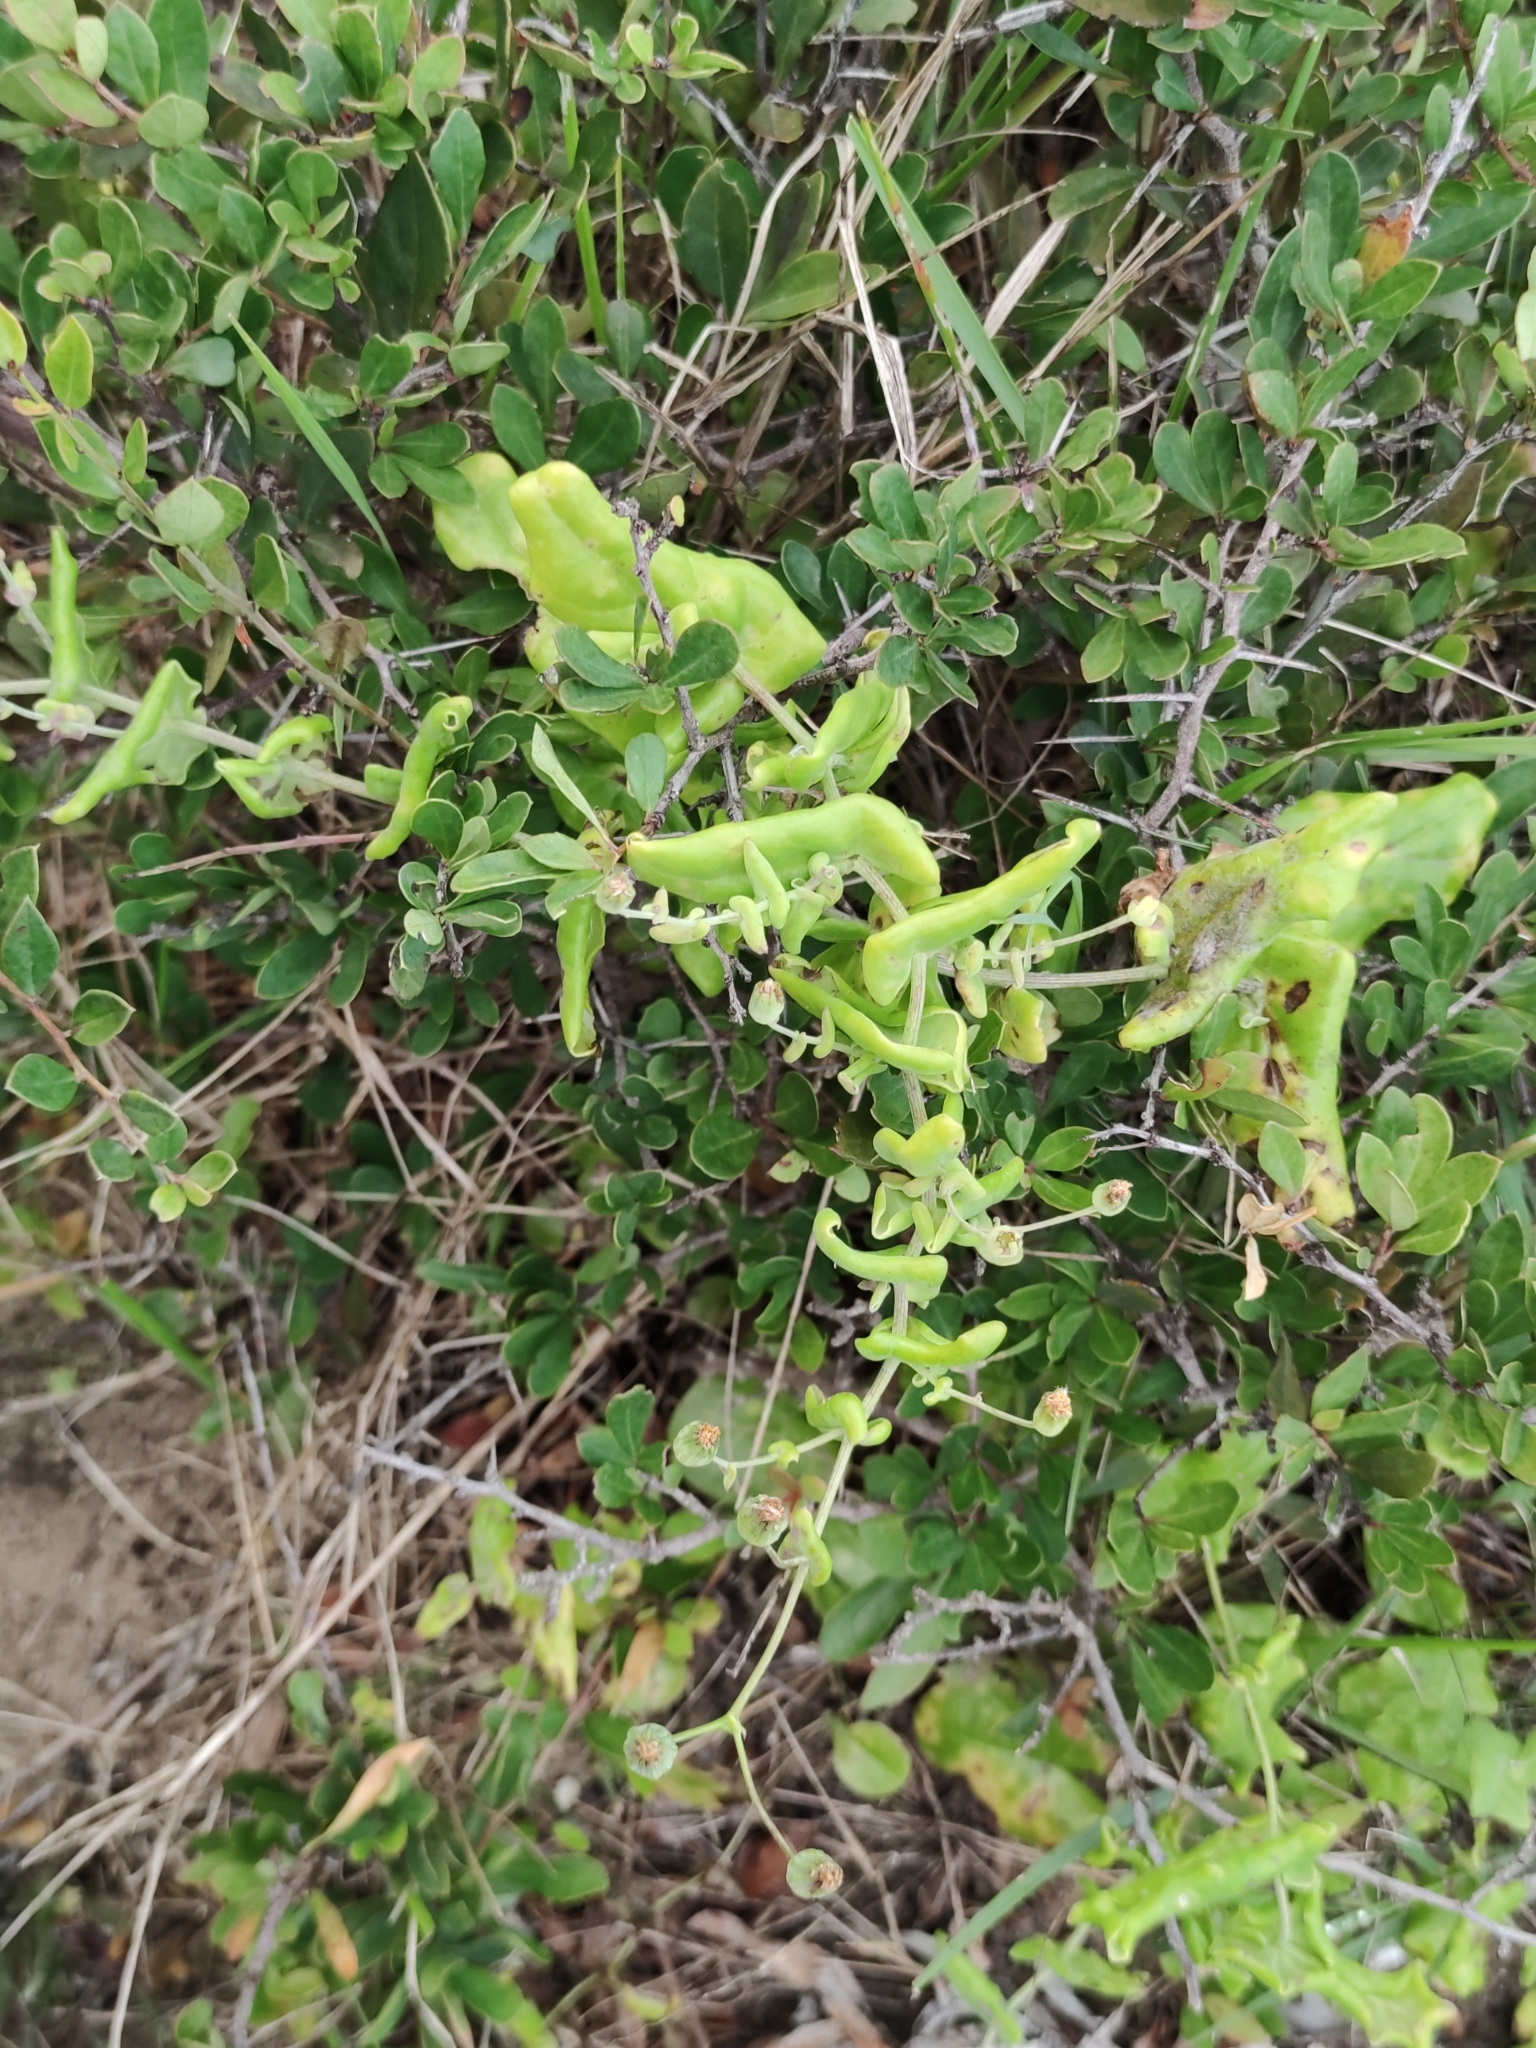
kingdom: Plantae
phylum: Tracheophyta
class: Magnoliopsida
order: Asterales
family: Asteraceae
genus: Othonna
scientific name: Othonna undulosa
